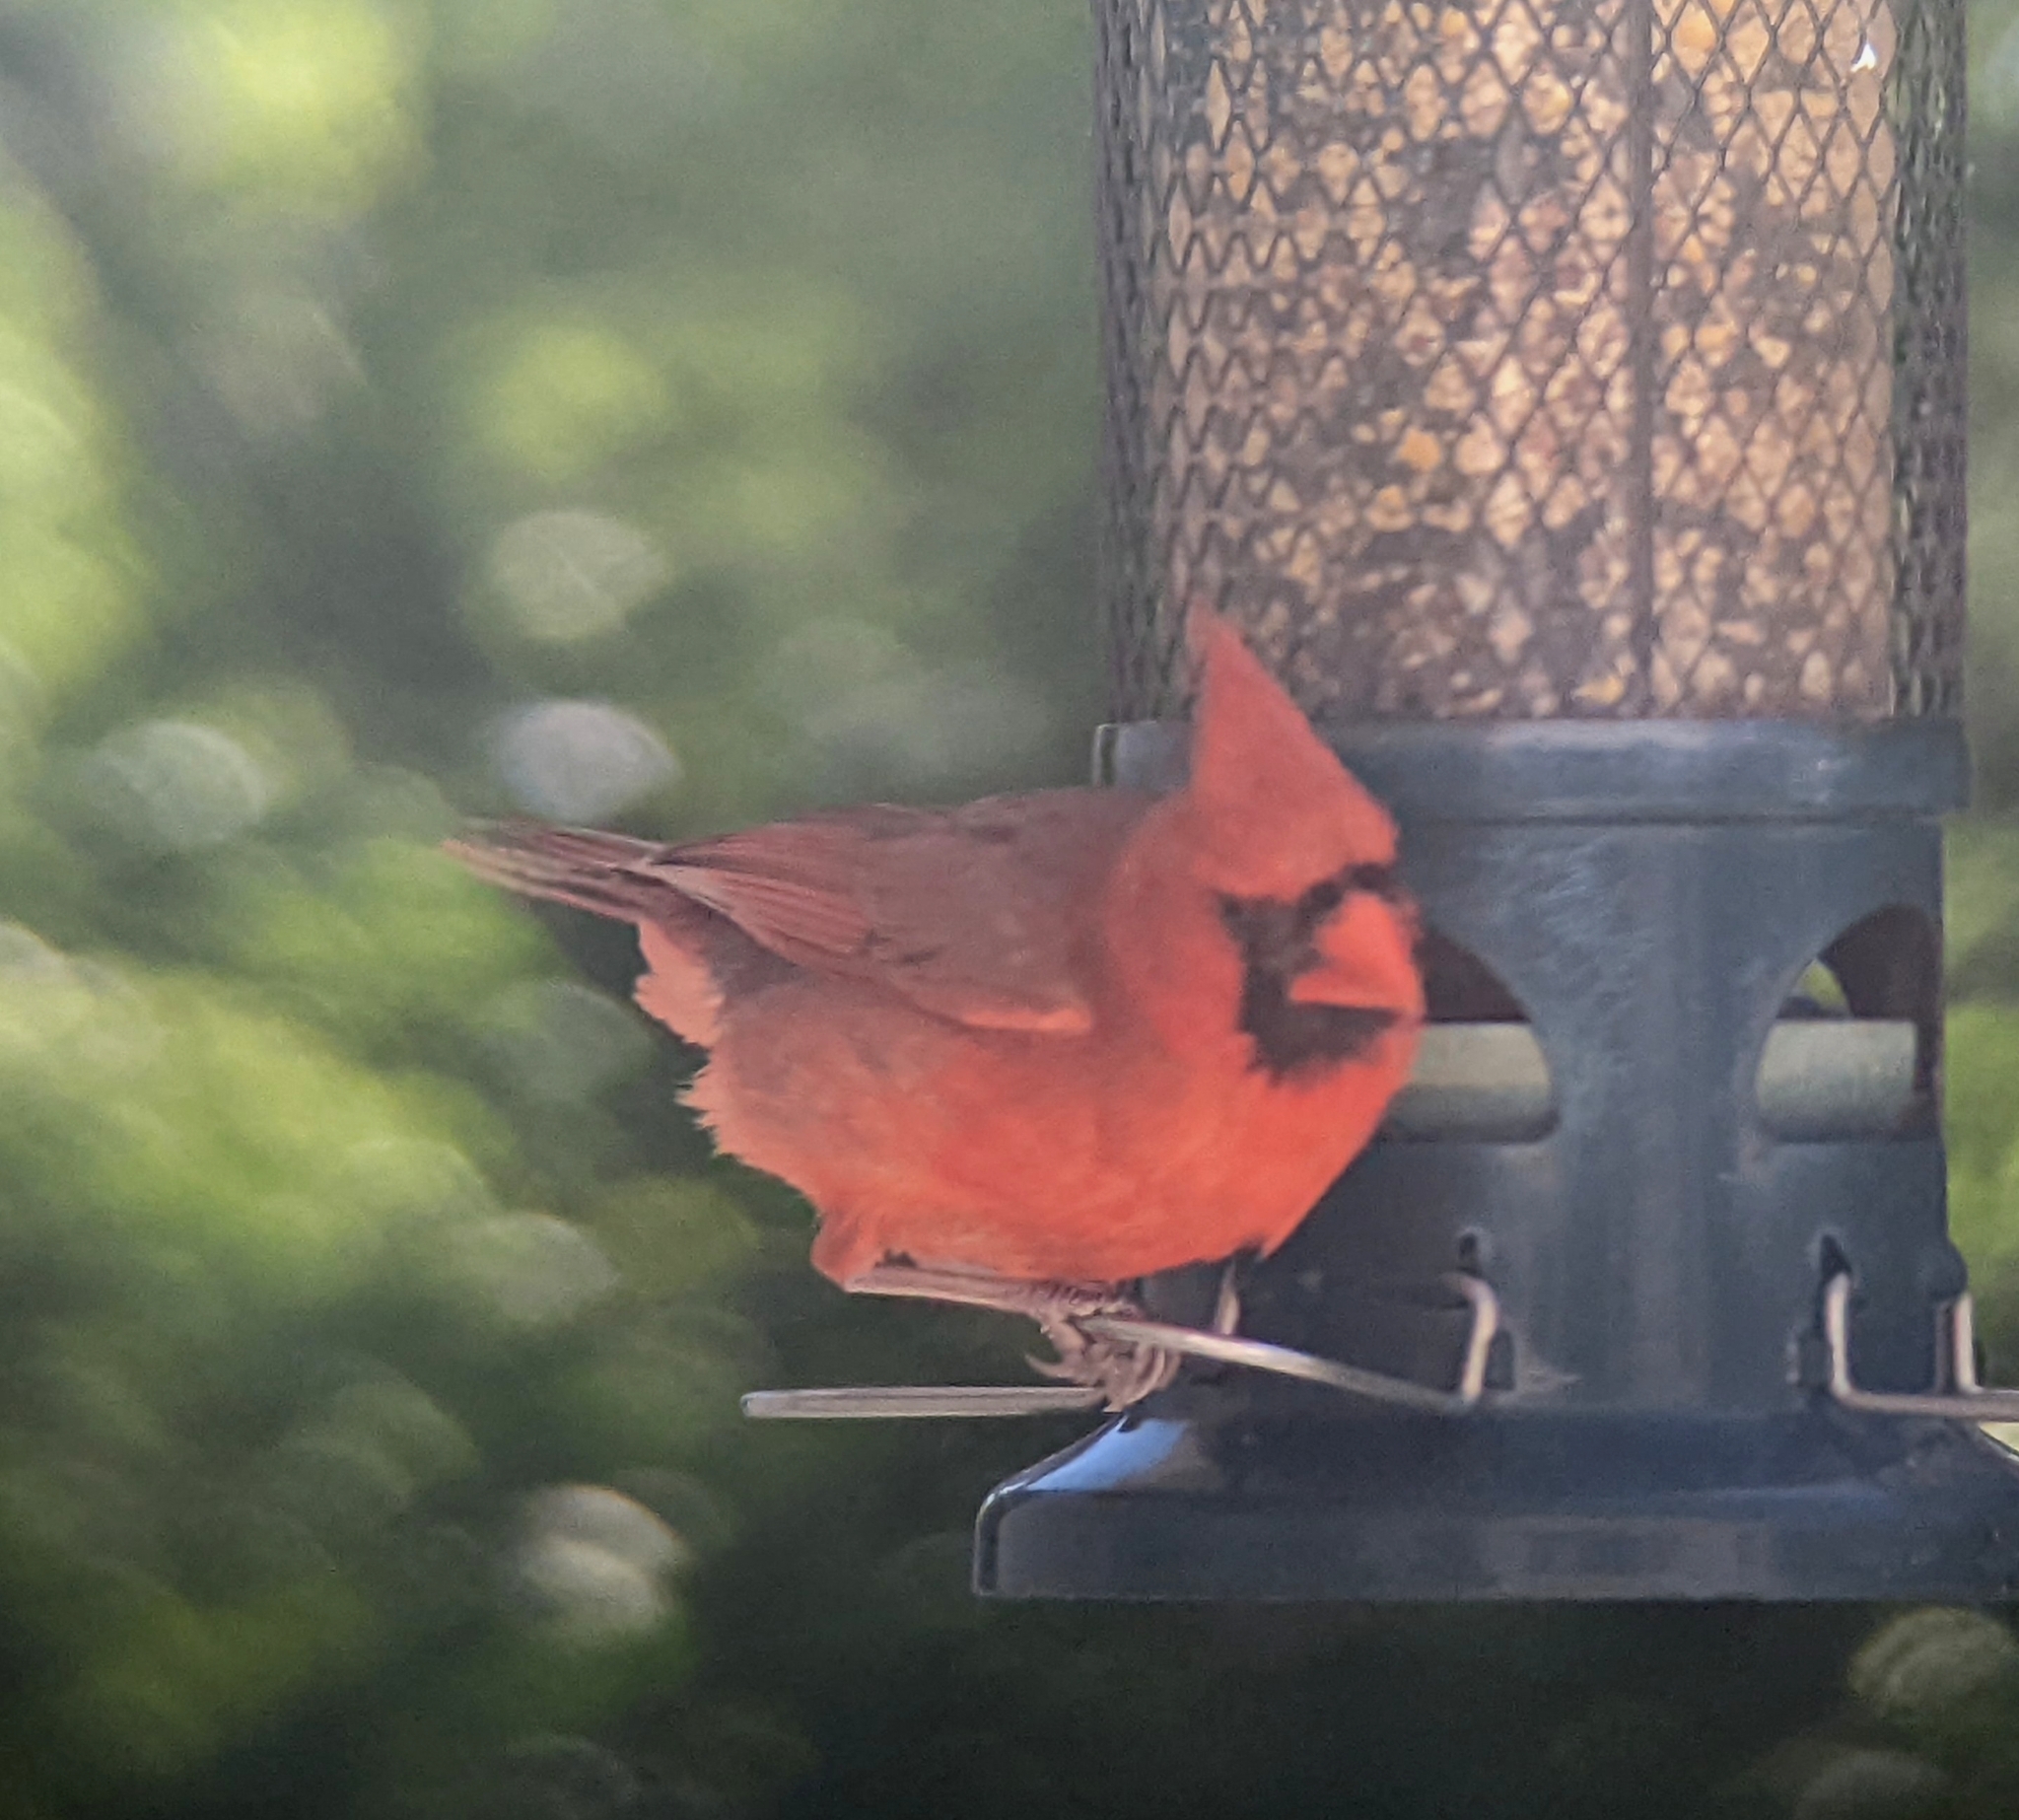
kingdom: Animalia
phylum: Chordata
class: Aves
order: Passeriformes
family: Cardinalidae
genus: Cardinalis
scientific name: Cardinalis cardinalis
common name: Northern cardinal
